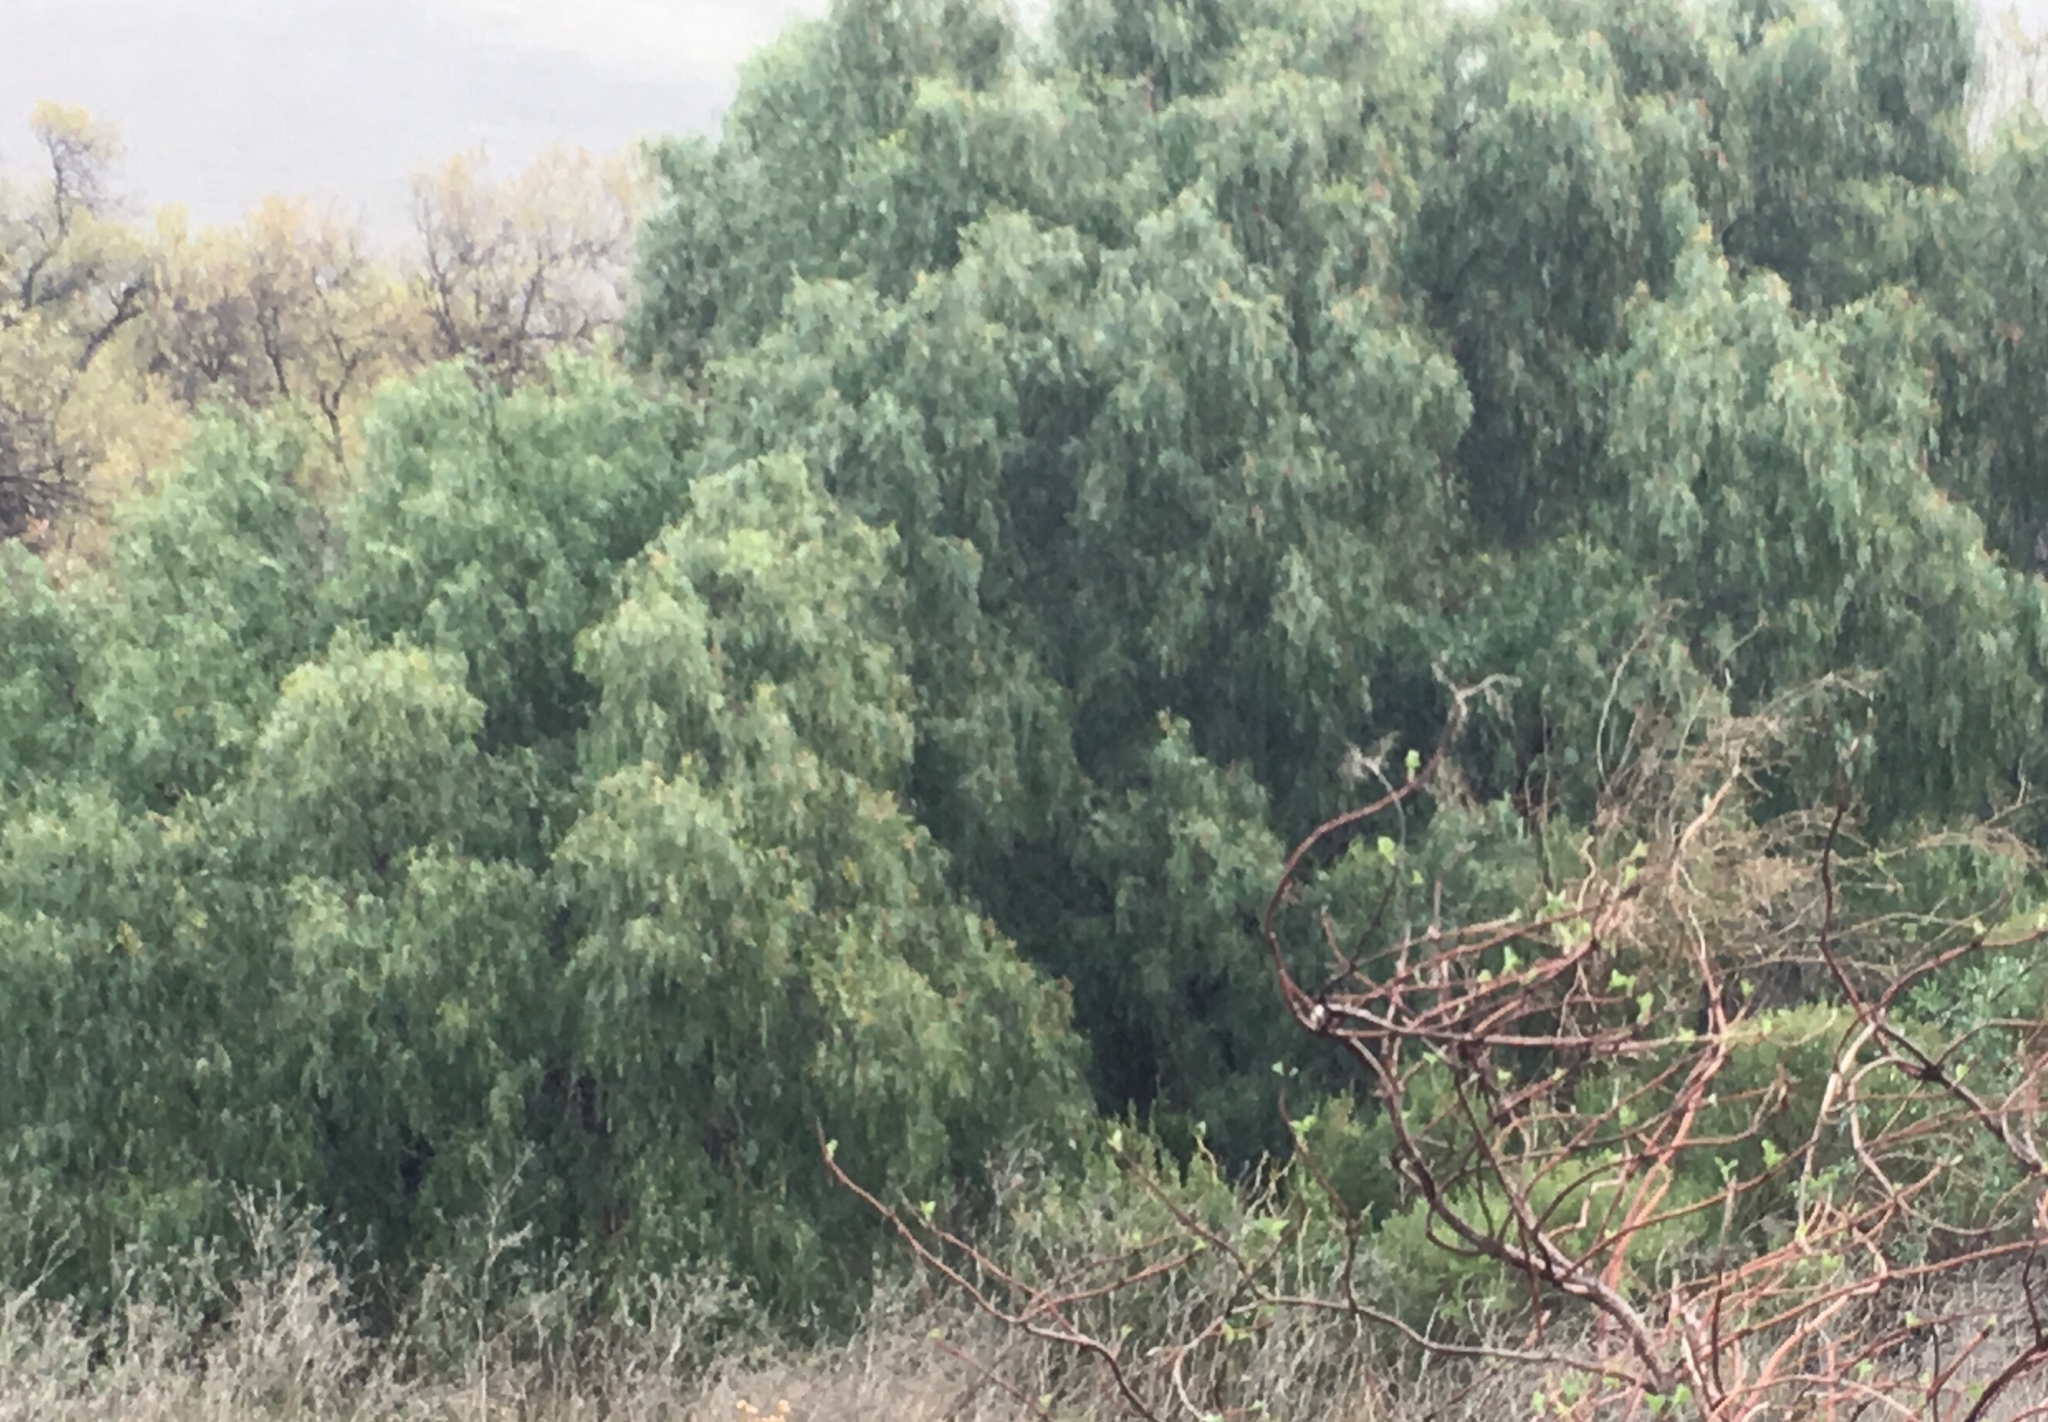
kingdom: Plantae
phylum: Tracheophyta
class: Magnoliopsida
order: Sapindales
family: Anacardiaceae
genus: Schinus
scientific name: Schinus molle
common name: Peruvian peppertree
